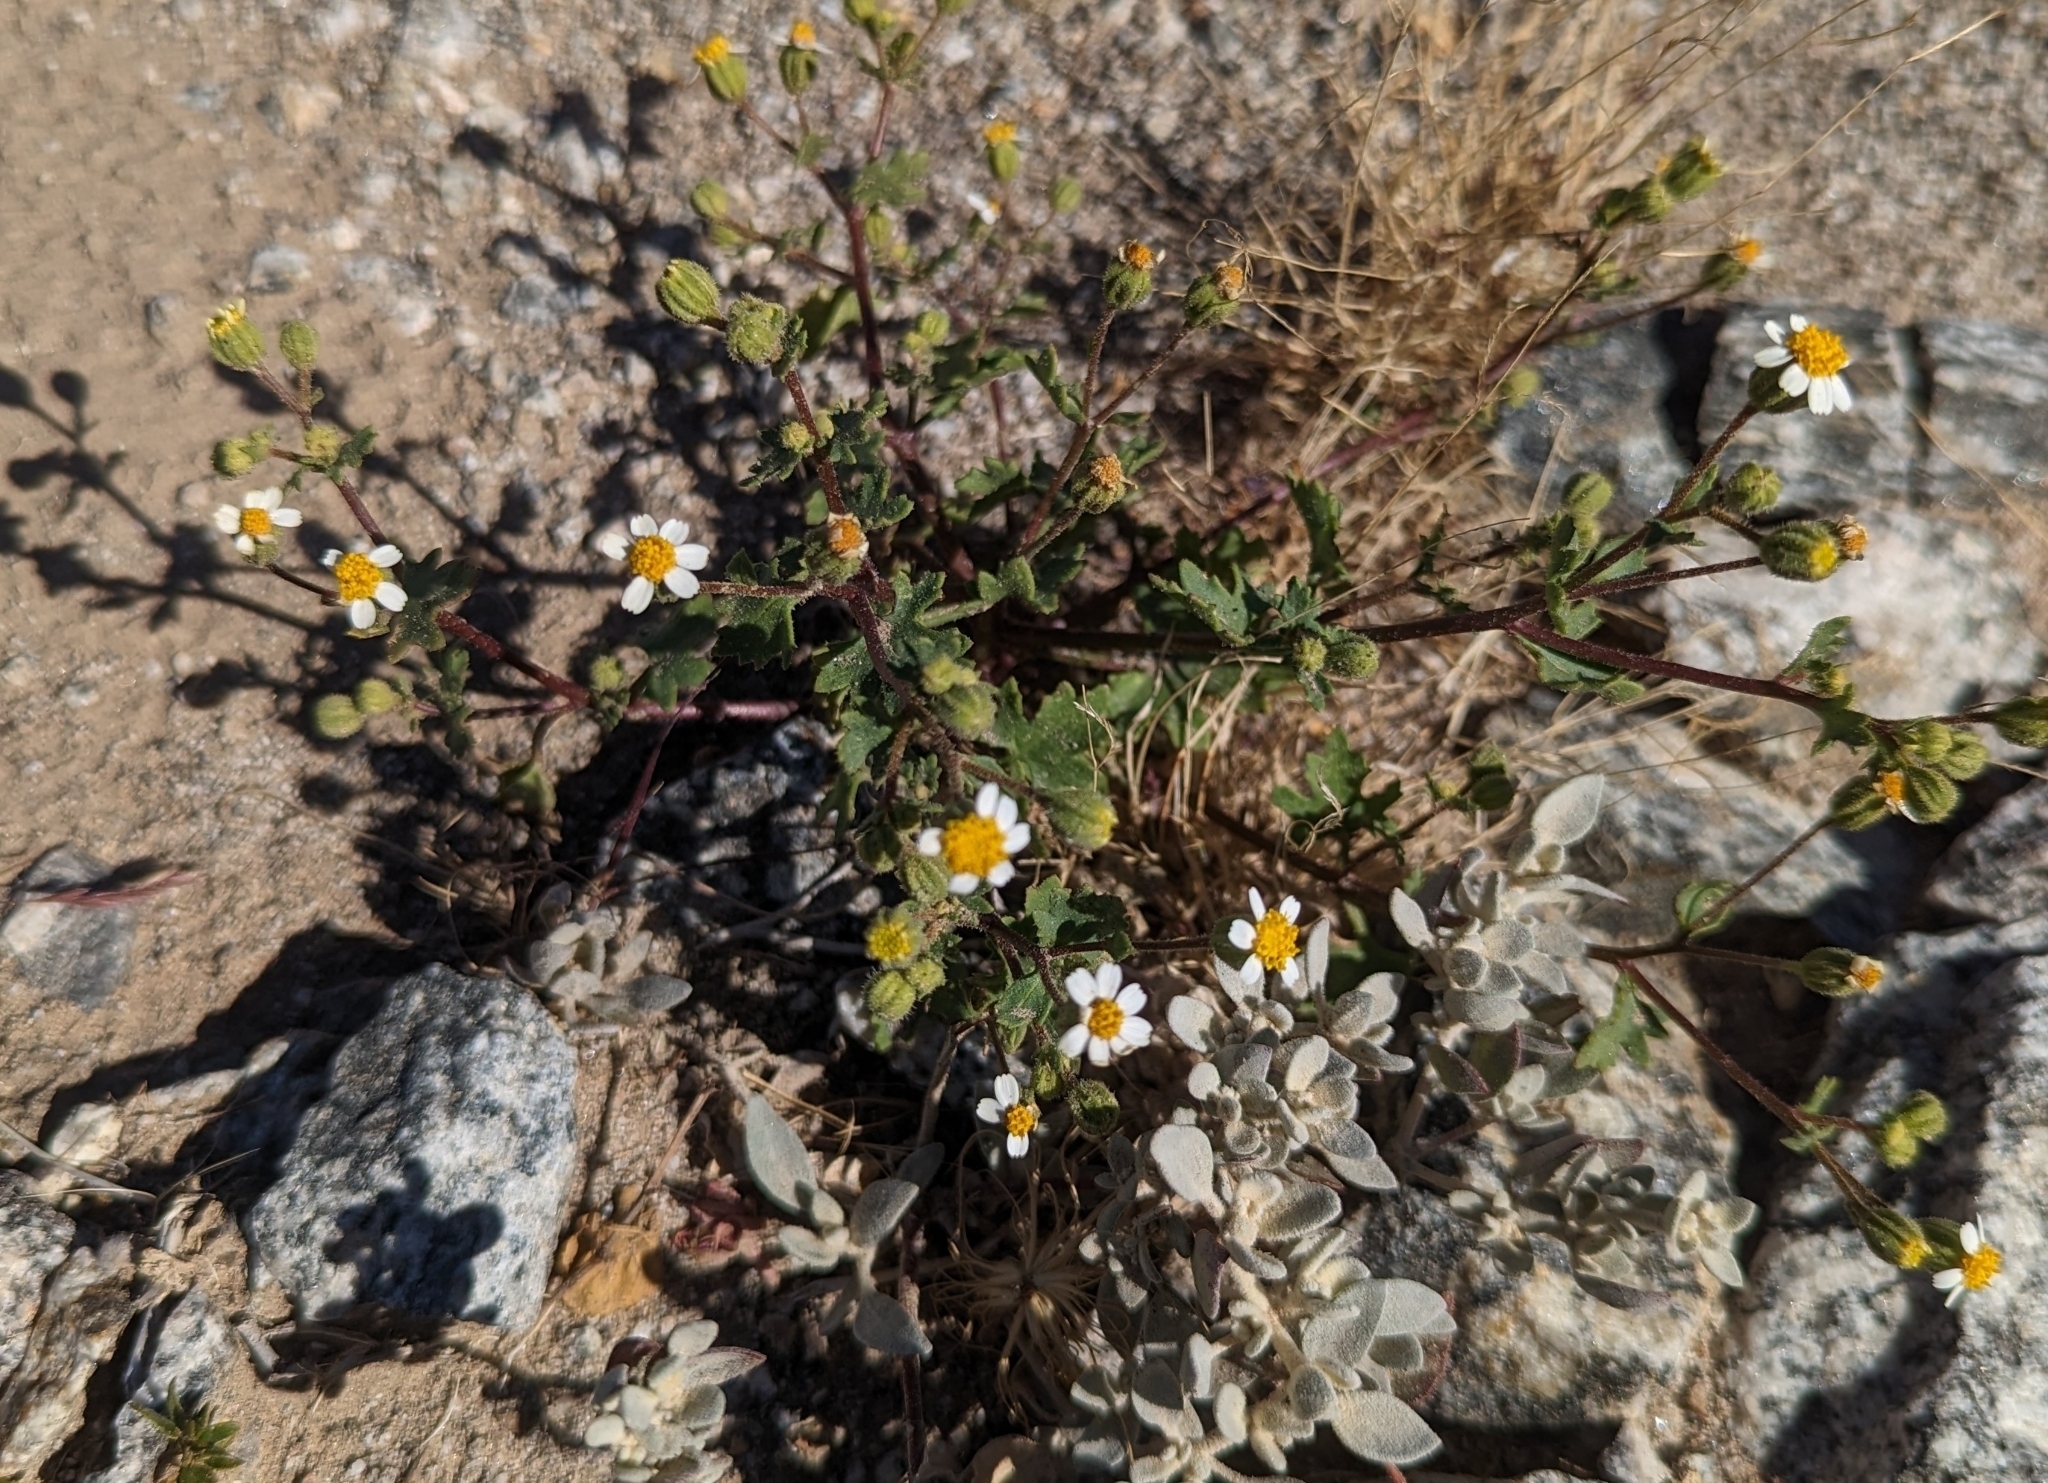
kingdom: Plantae
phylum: Tracheophyta
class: Magnoliopsida
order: Asterales
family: Asteraceae
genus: Laphamia
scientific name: Laphamia emoryi
